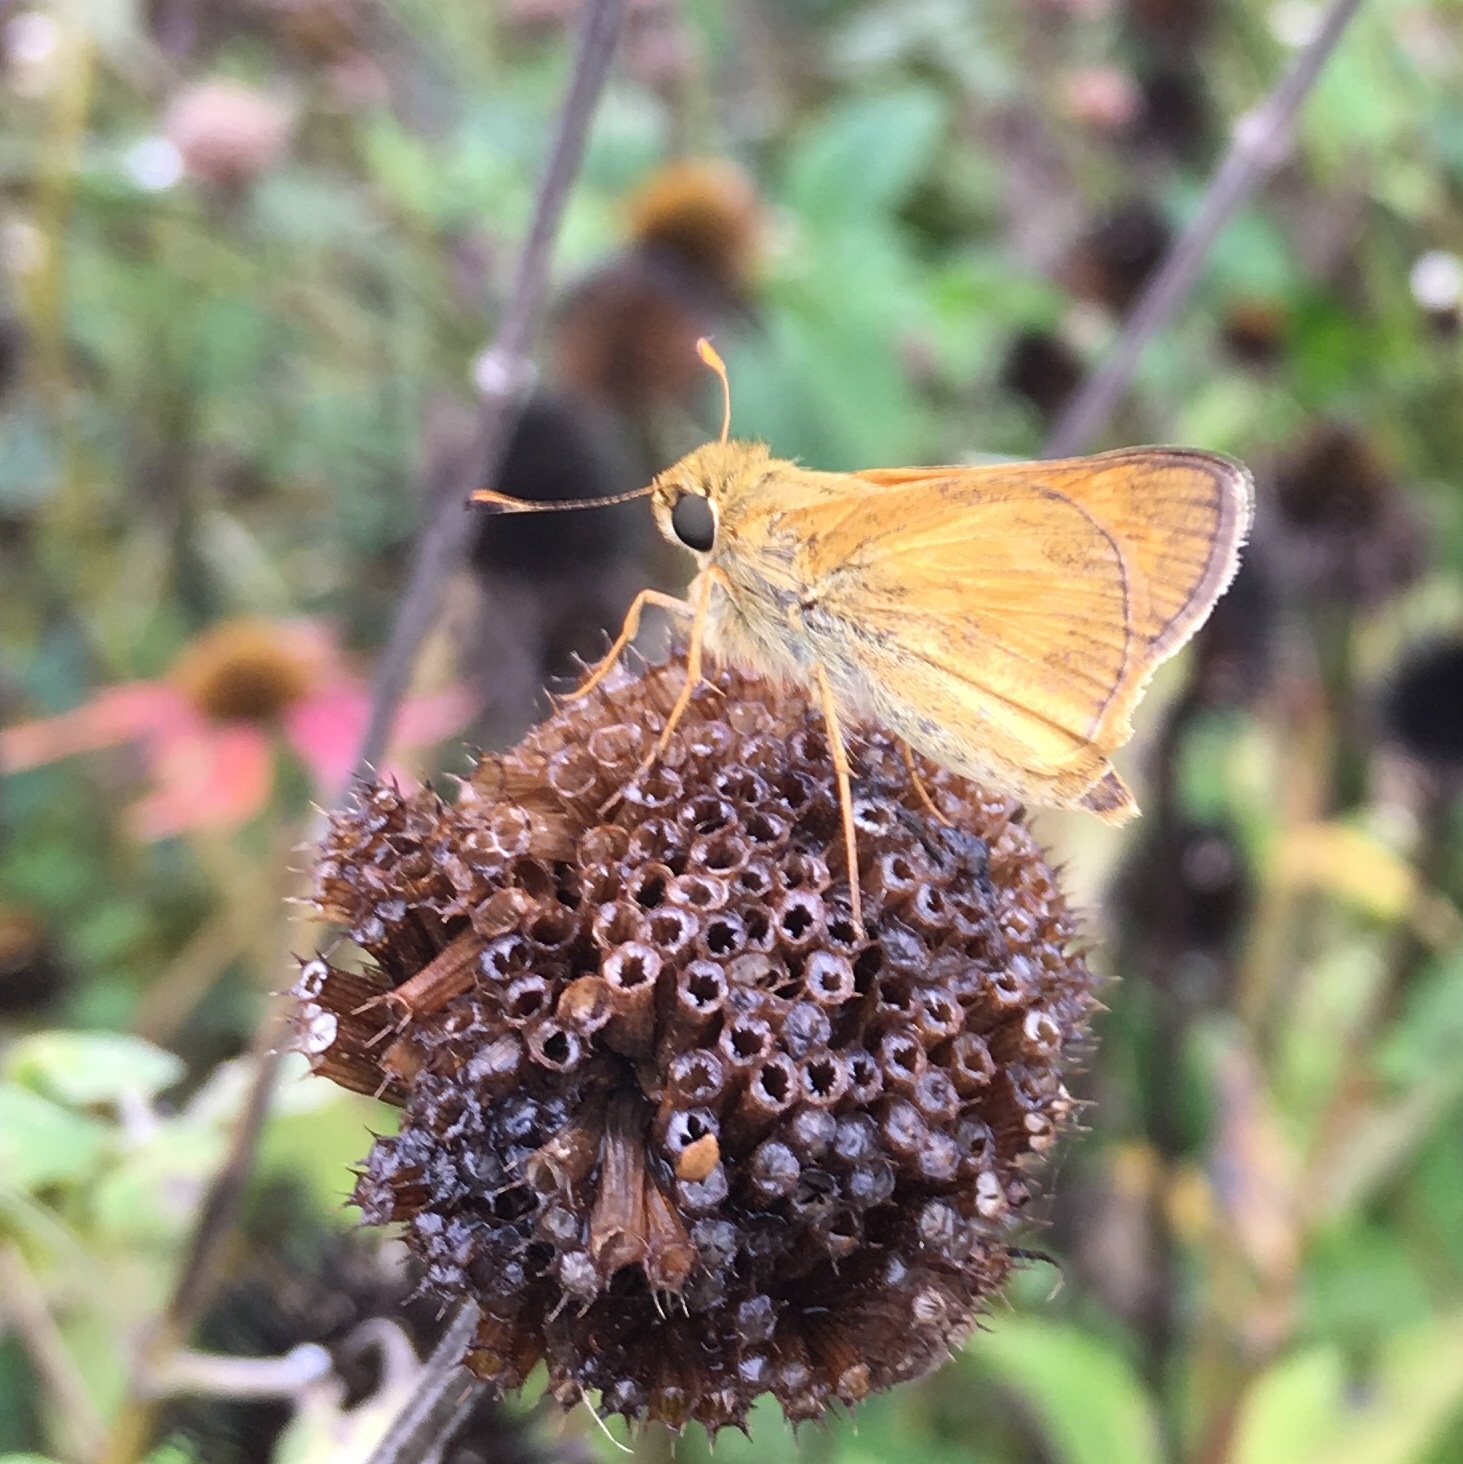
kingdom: Animalia
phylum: Arthropoda
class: Insecta
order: Lepidoptera
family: Hesperiidae
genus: Atalopedes
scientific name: Atalopedes
